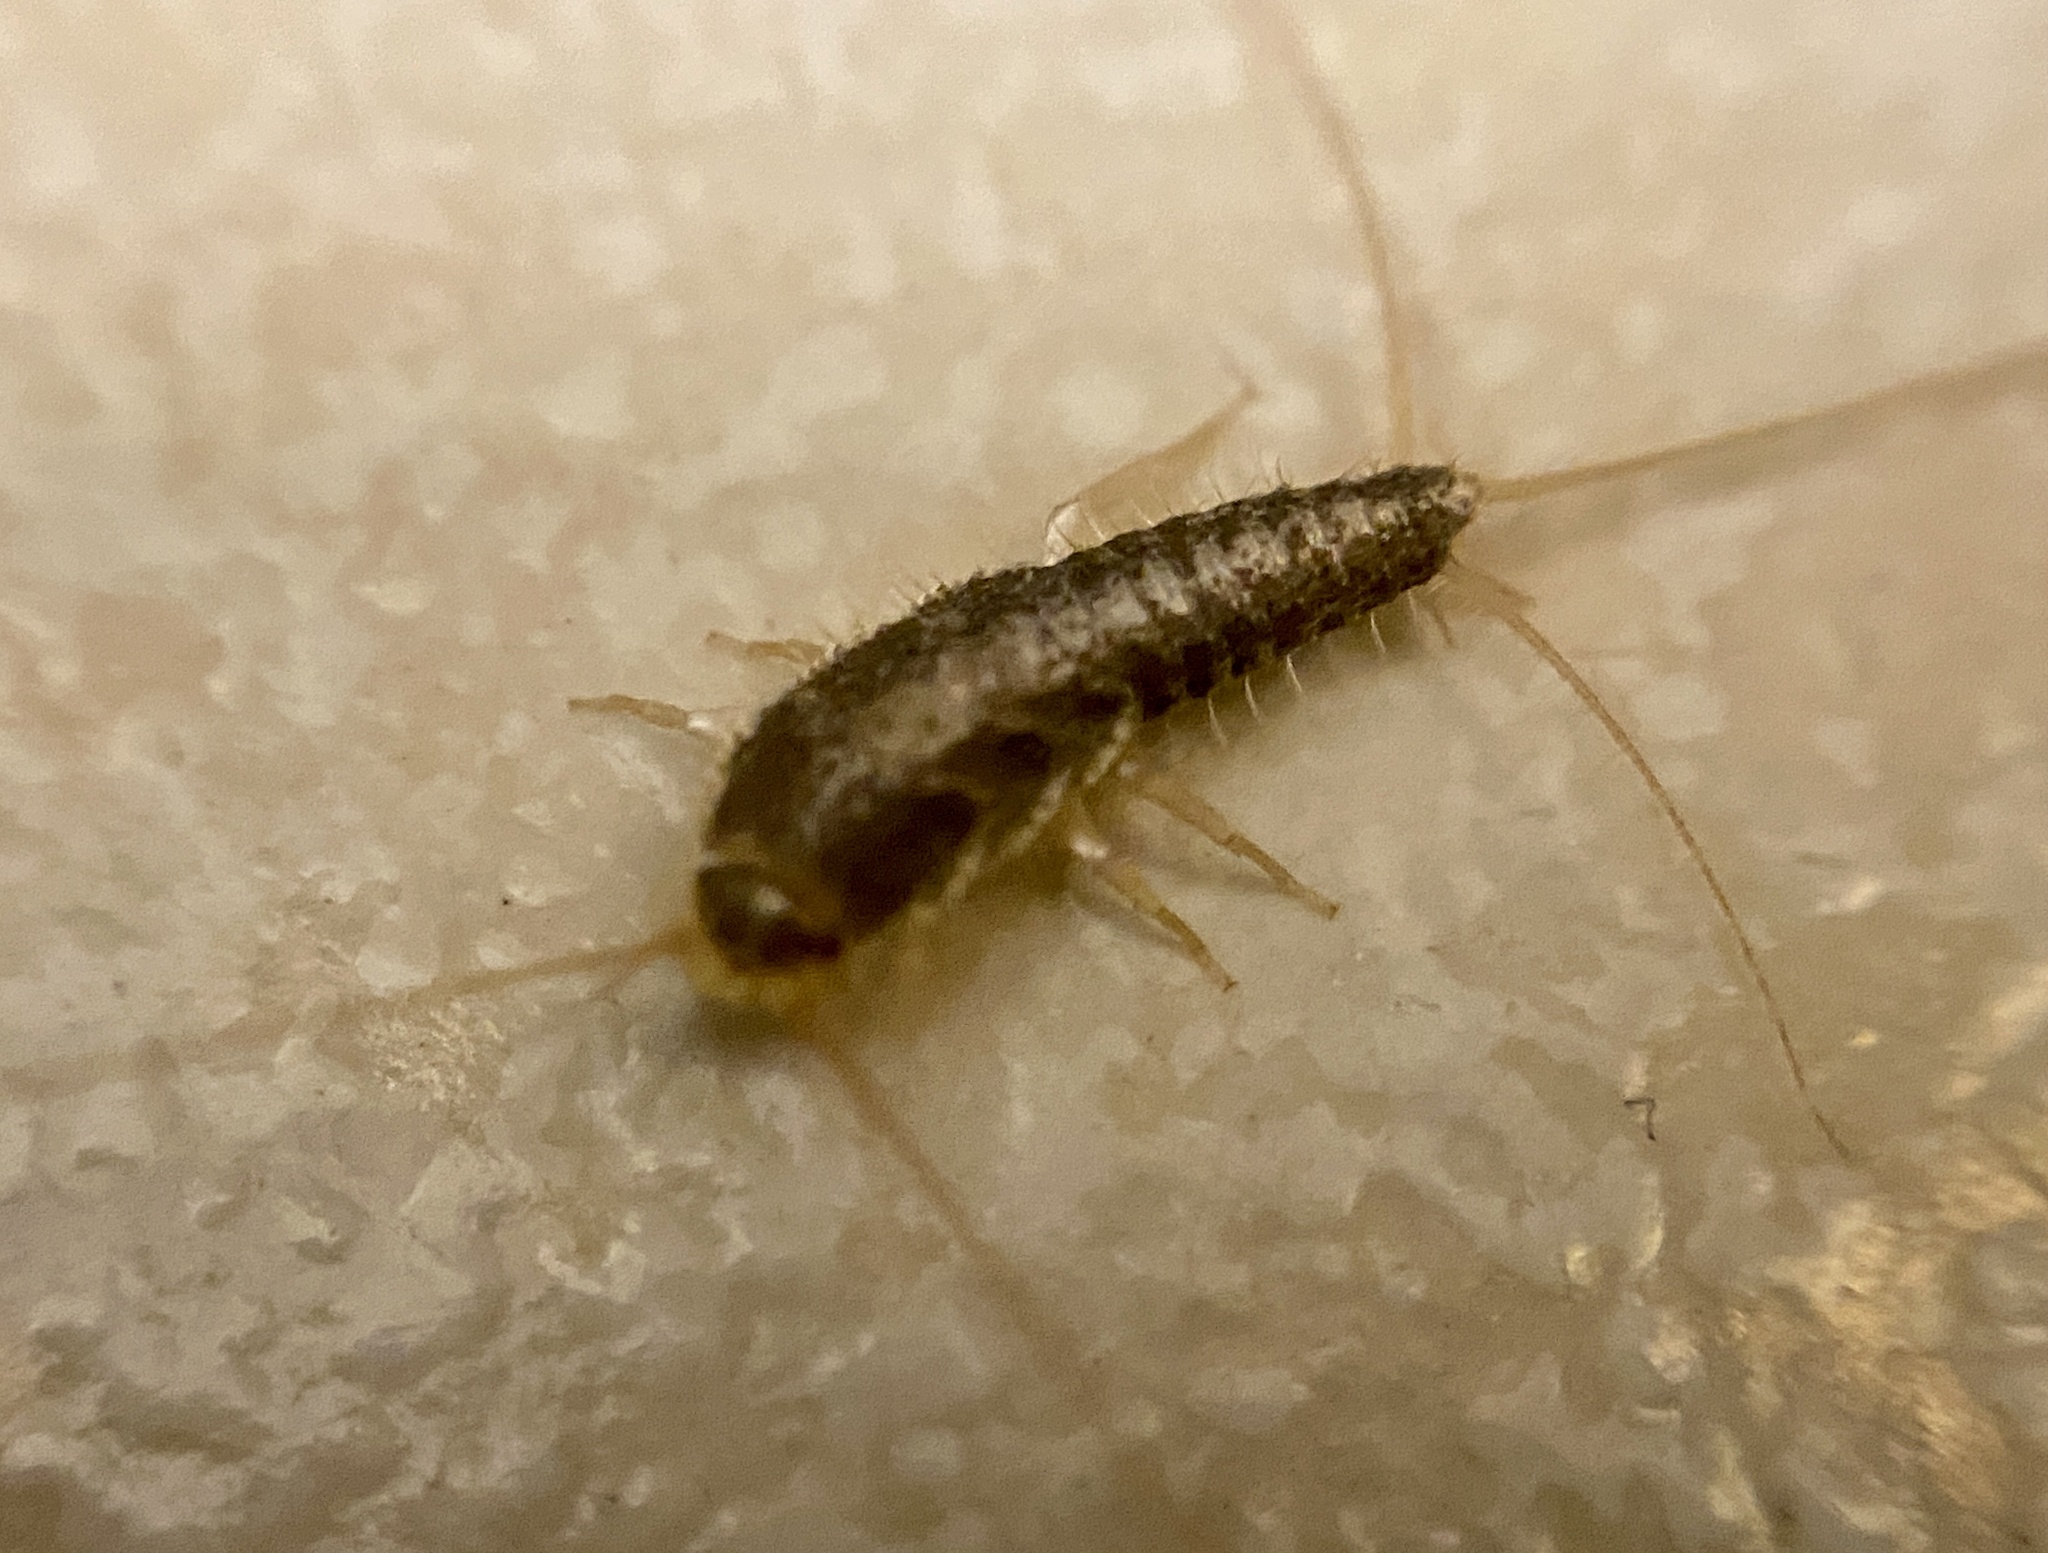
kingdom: Animalia
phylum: Arthropoda
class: Insecta
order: Zygentoma
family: Lepismatidae
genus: Ctenolepisma
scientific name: Ctenolepisma longicaudatum
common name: Silverfish
